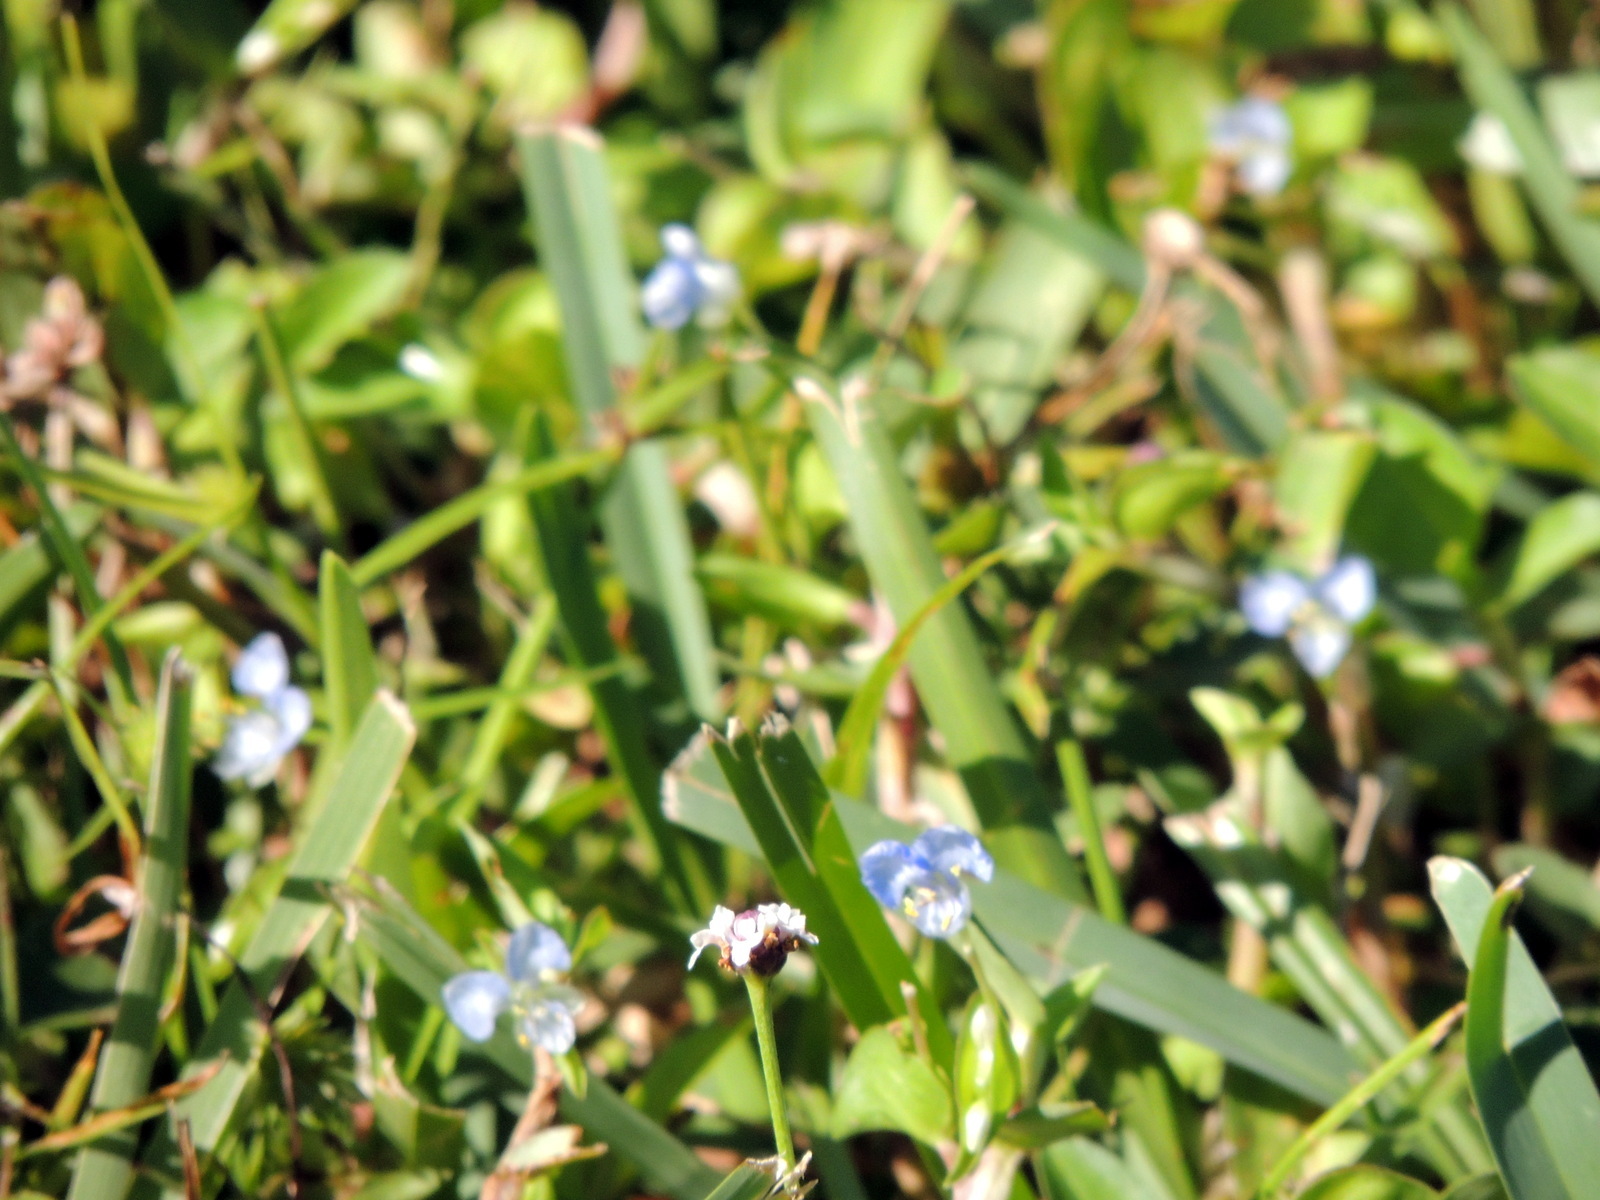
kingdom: Plantae
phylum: Tracheophyta
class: Liliopsida
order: Commelinales
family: Commelinaceae
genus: Commelina
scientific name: Commelina diffusa
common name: Climbing dayflower
